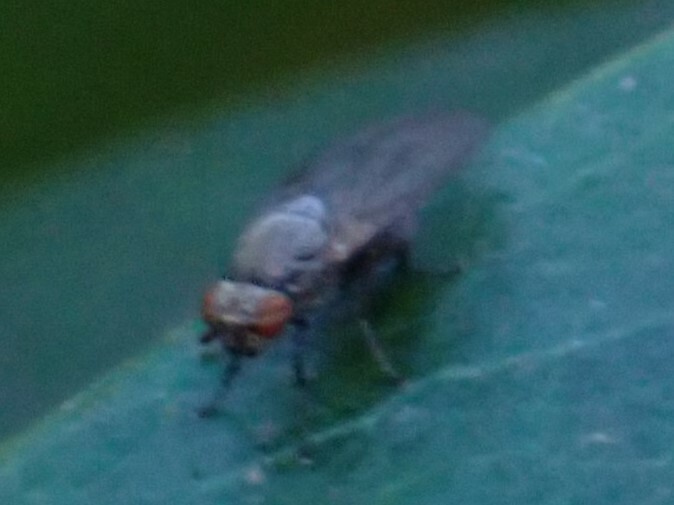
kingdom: Animalia
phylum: Arthropoda
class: Insecta
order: Diptera
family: Lauxaniidae
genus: Sapromyza
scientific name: Sapromyza brachysoma
